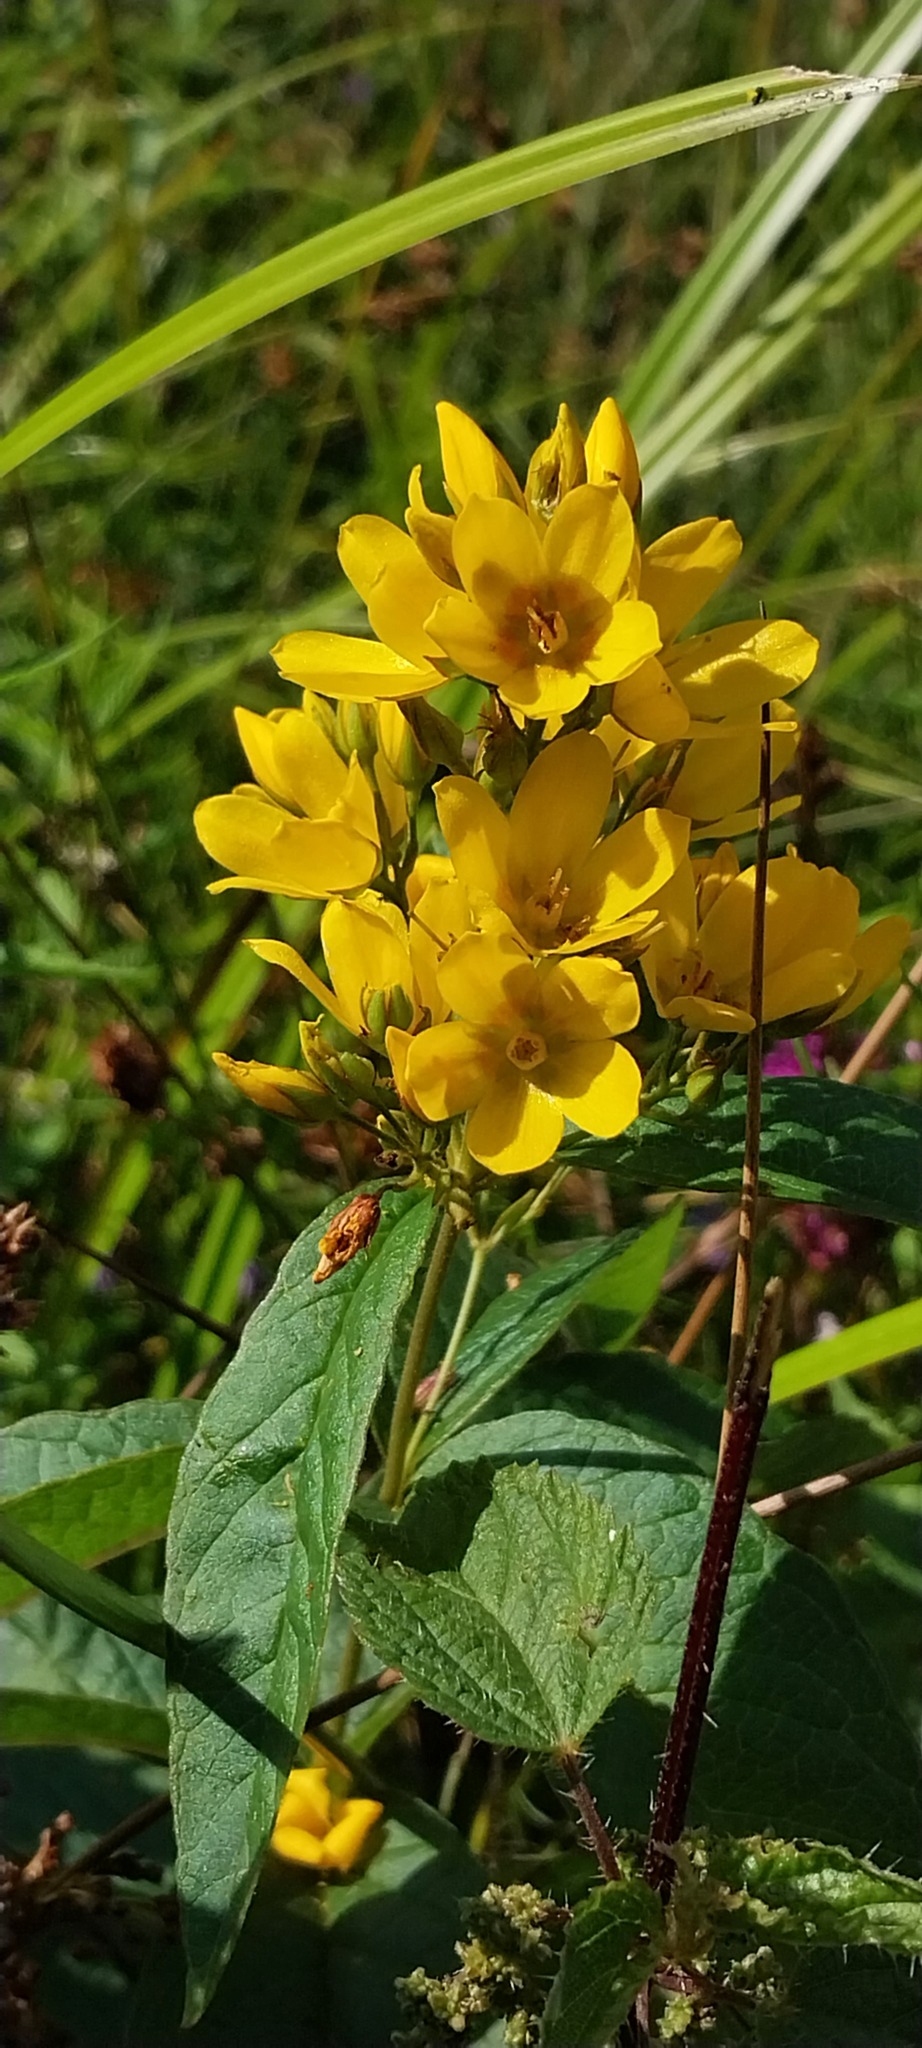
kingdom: Plantae
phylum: Tracheophyta
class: Magnoliopsida
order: Ericales
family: Primulaceae
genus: Lysimachia
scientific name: Lysimachia vulgaris
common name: Yellow loosestrife
